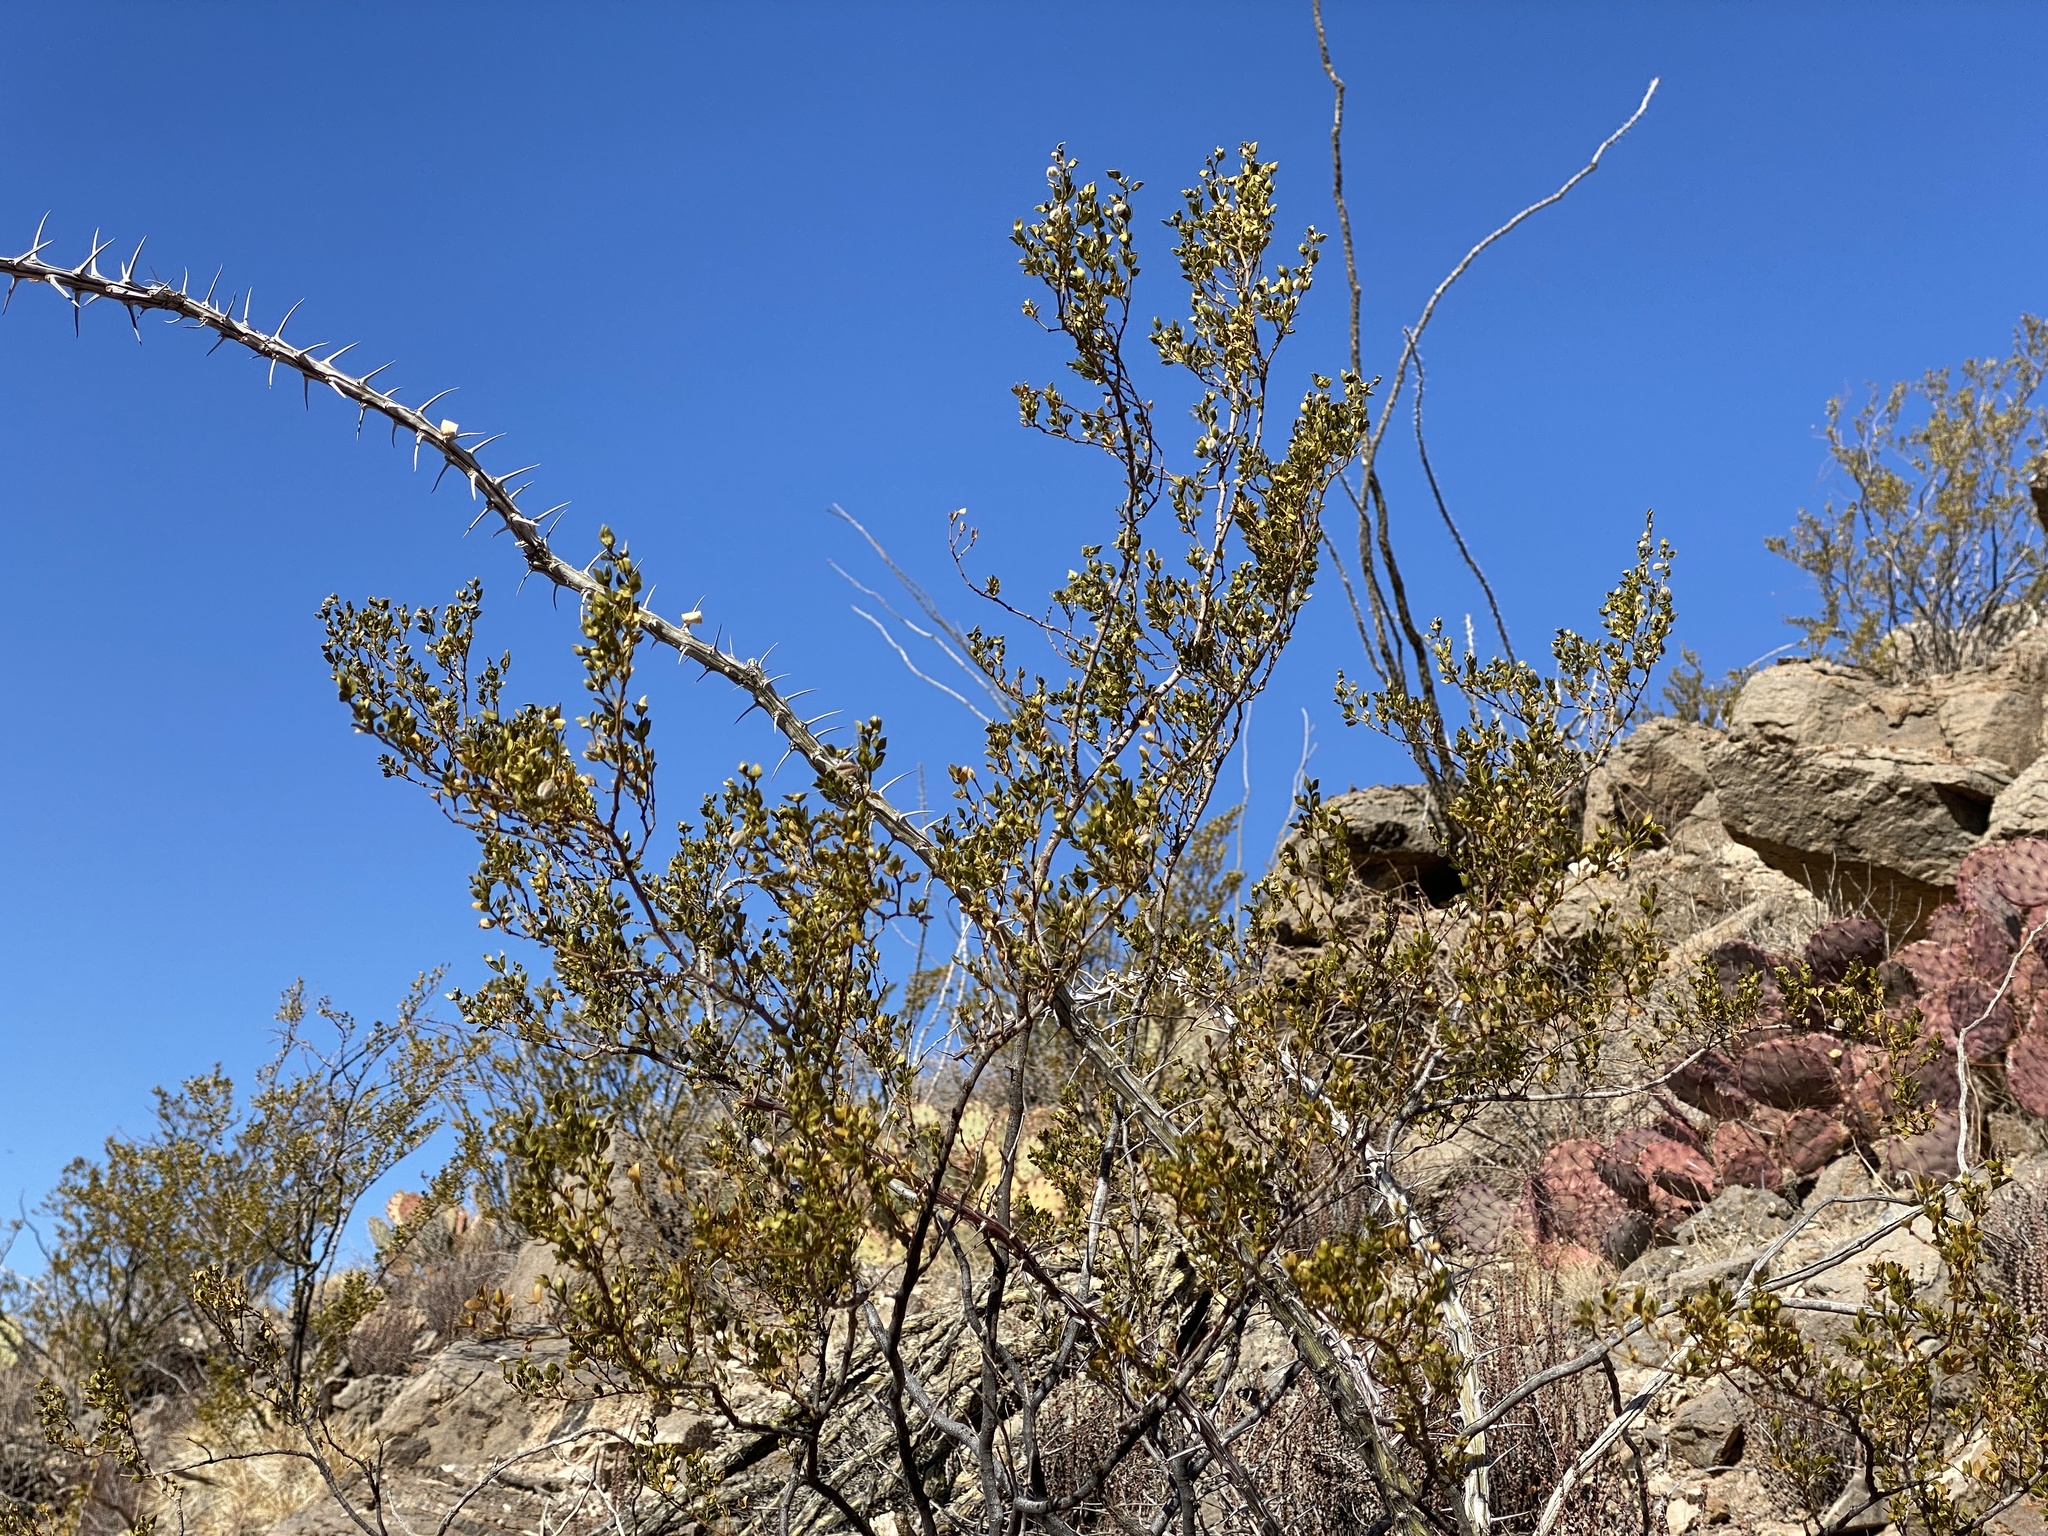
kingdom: Plantae
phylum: Tracheophyta
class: Magnoliopsida
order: Zygophyllales
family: Zygophyllaceae
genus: Larrea
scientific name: Larrea tridentata
